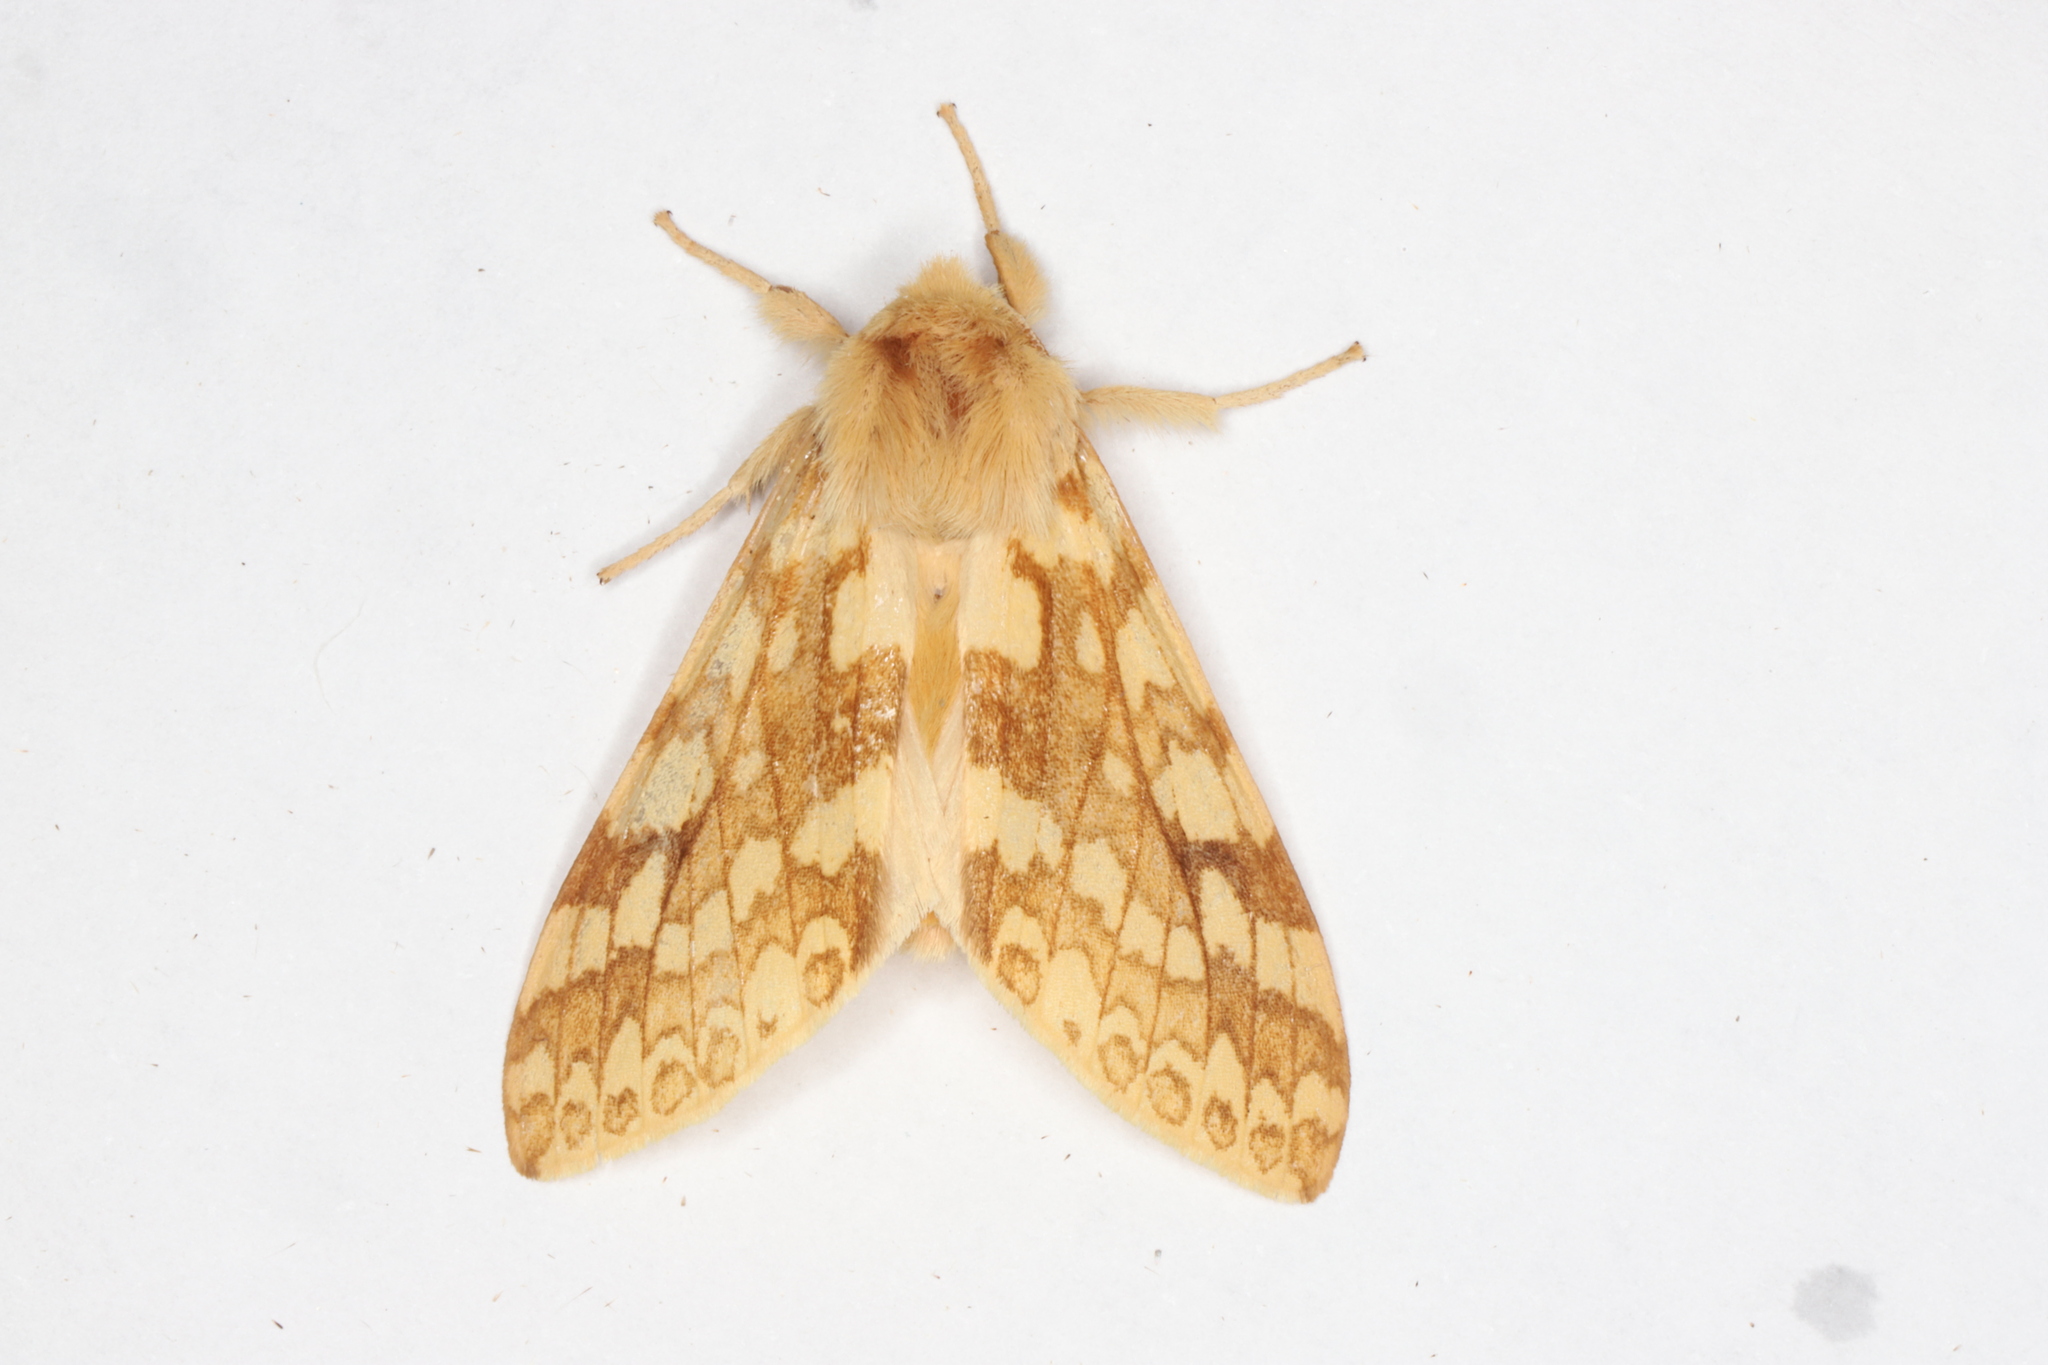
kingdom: Animalia
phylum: Arthropoda
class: Insecta
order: Lepidoptera
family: Erebidae
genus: Lophocampa
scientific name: Lophocampa maculata
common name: Spotted tussock moth
